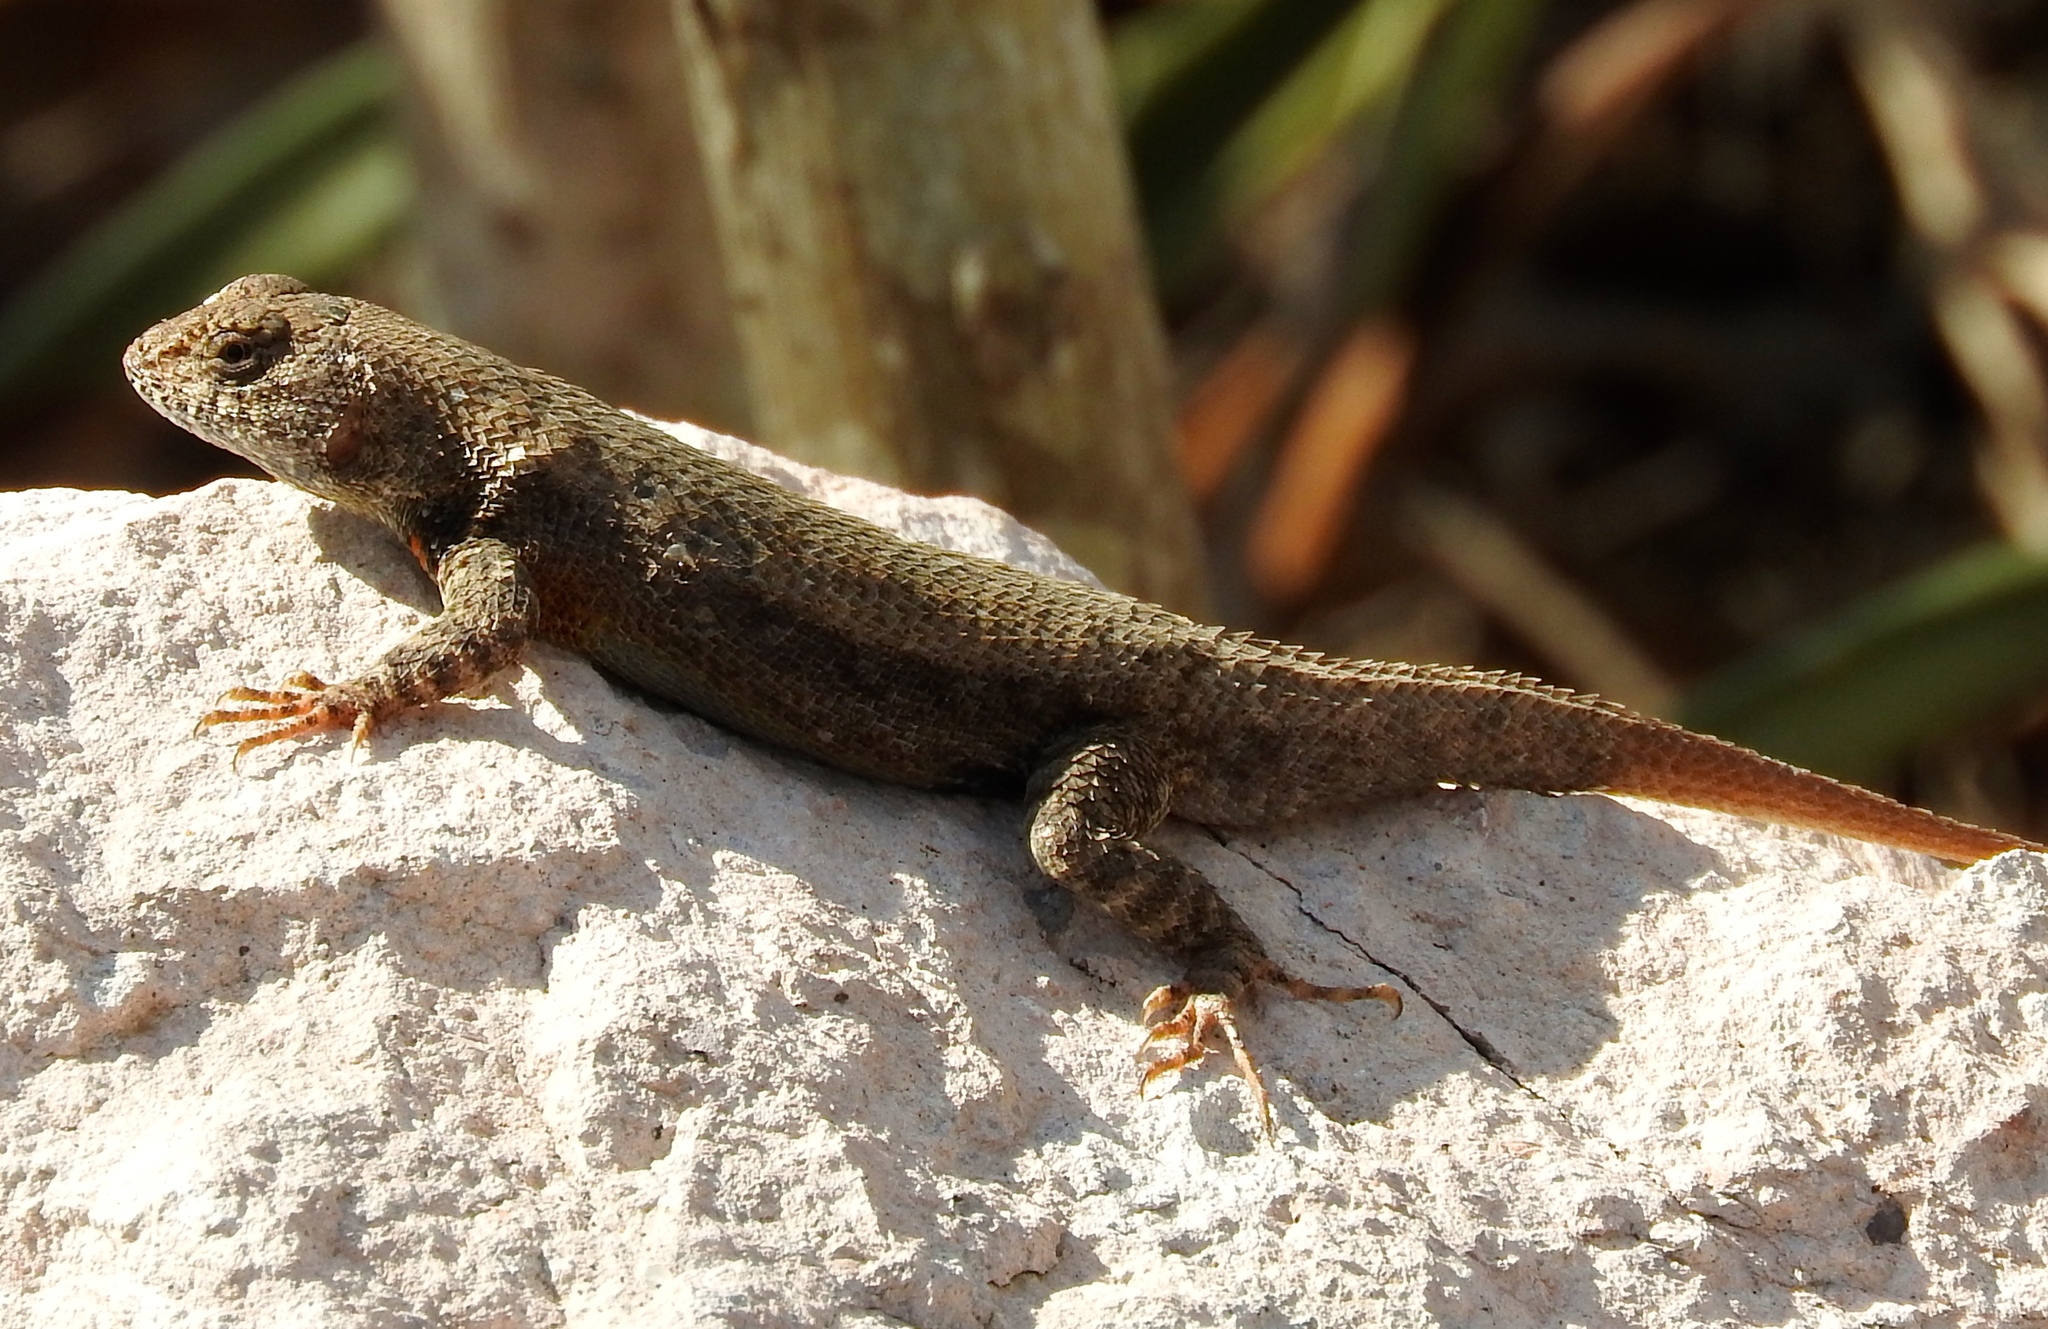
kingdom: Animalia
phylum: Chordata
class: Squamata
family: Phrynosomatidae
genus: Sceloporus
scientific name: Sceloporus nelsoni
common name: Nelson's spiny lizard
